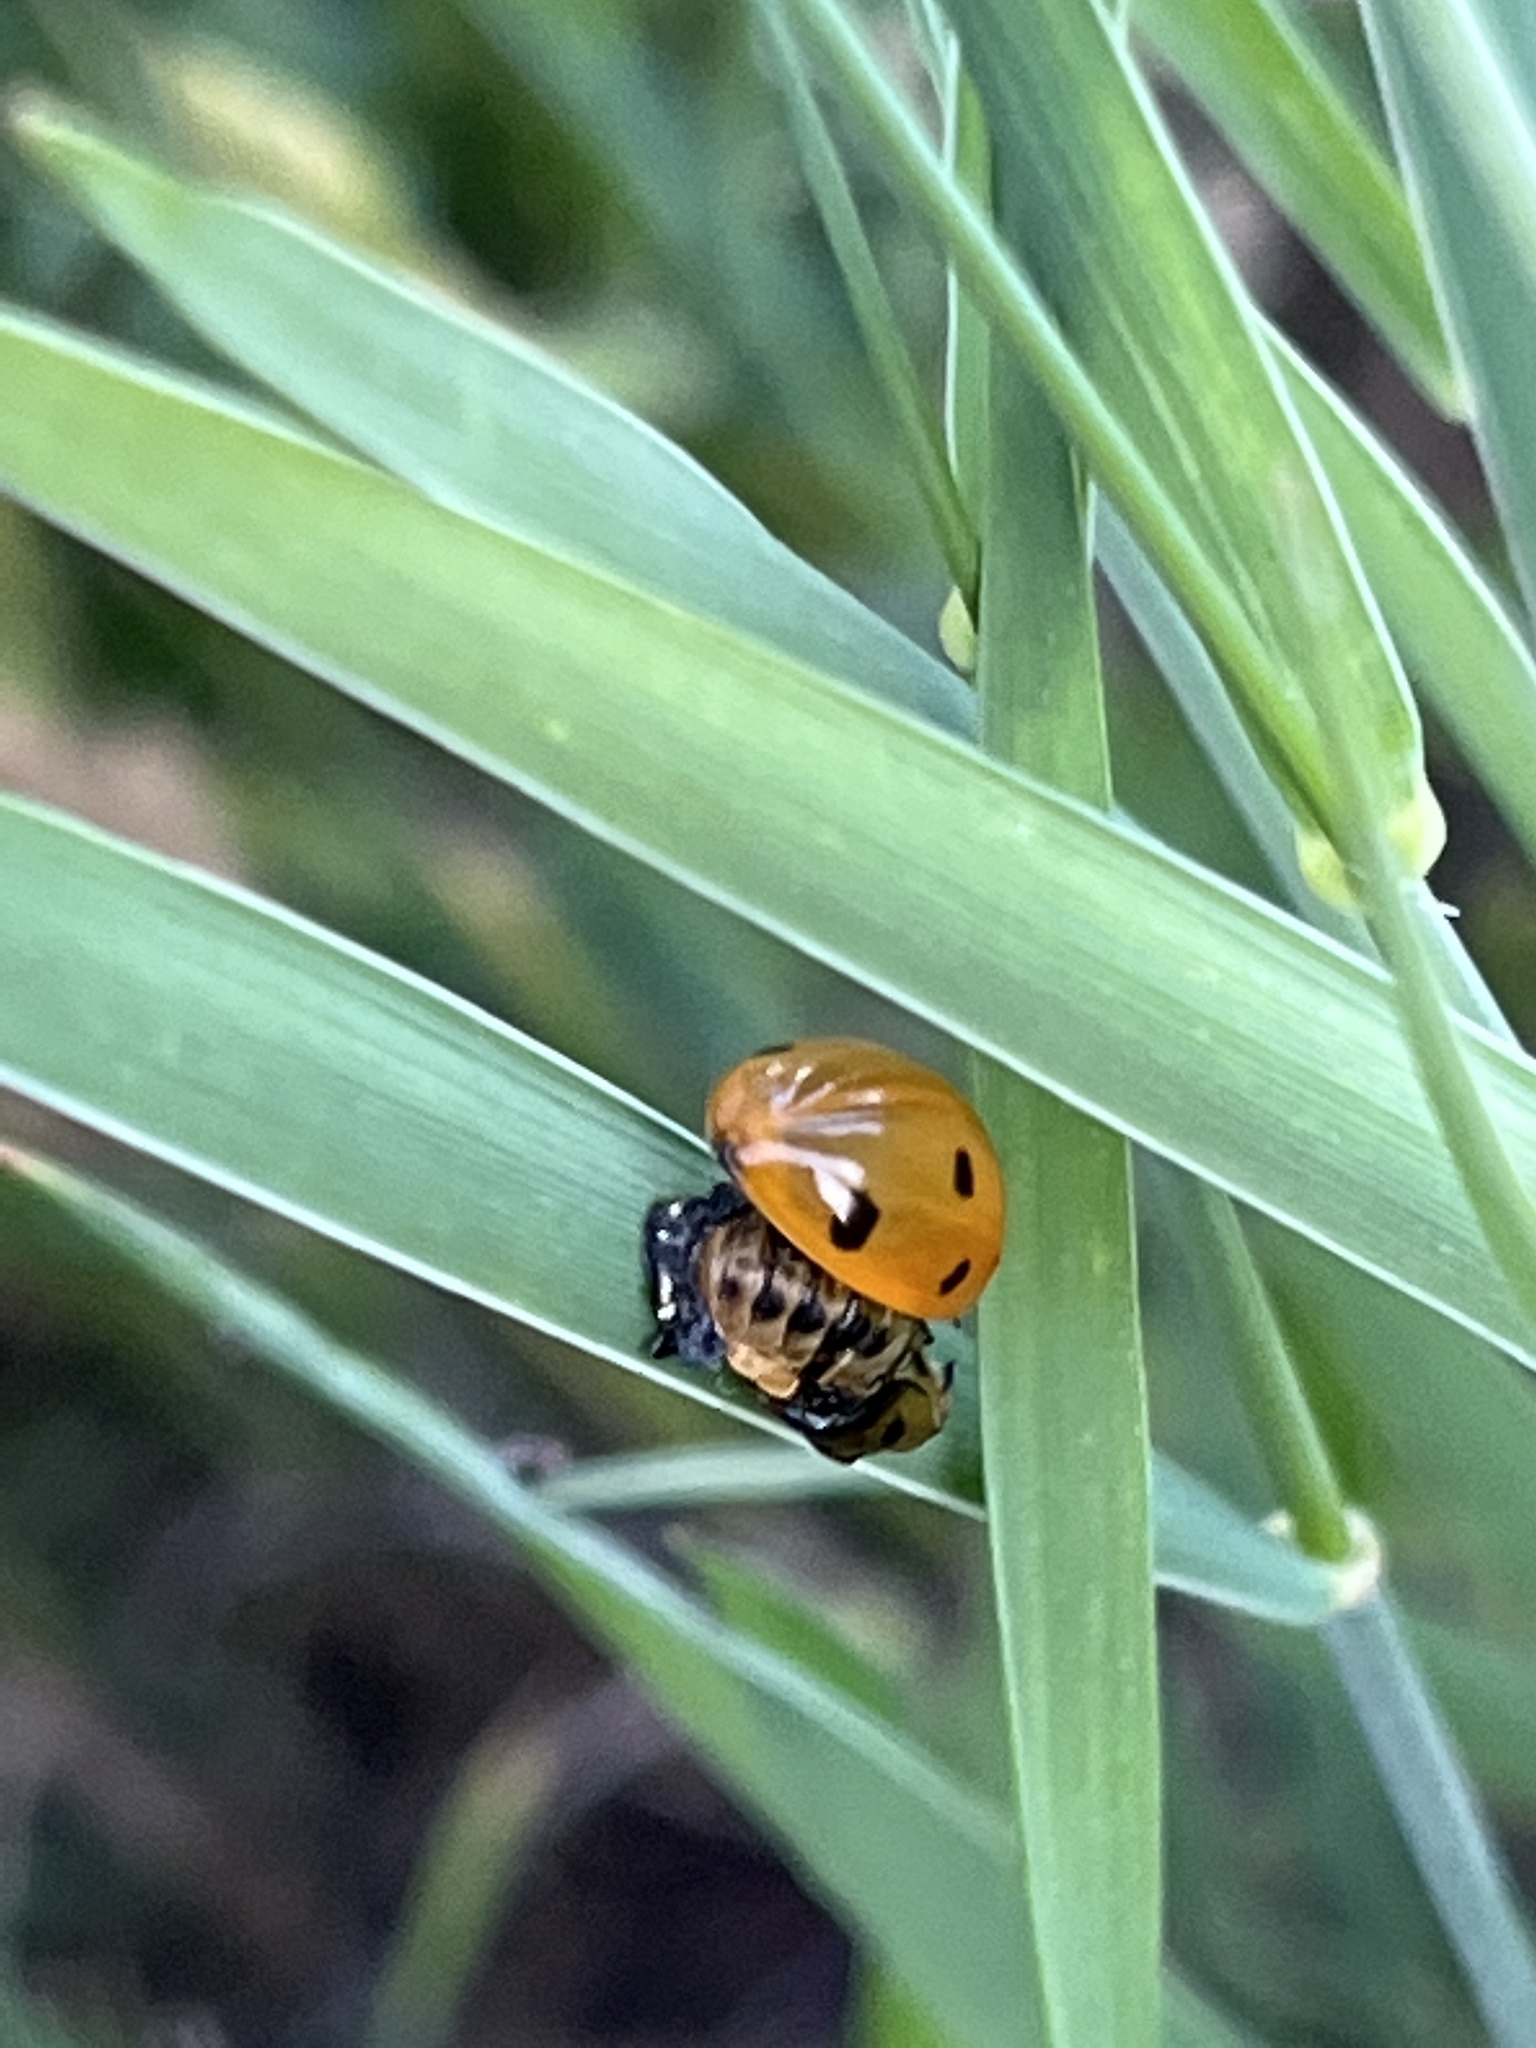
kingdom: Animalia
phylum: Arthropoda
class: Insecta
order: Coleoptera
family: Coccinellidae
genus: Coccinella
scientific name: Coccinella septempunctata
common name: Sevenspotted lady beetle
